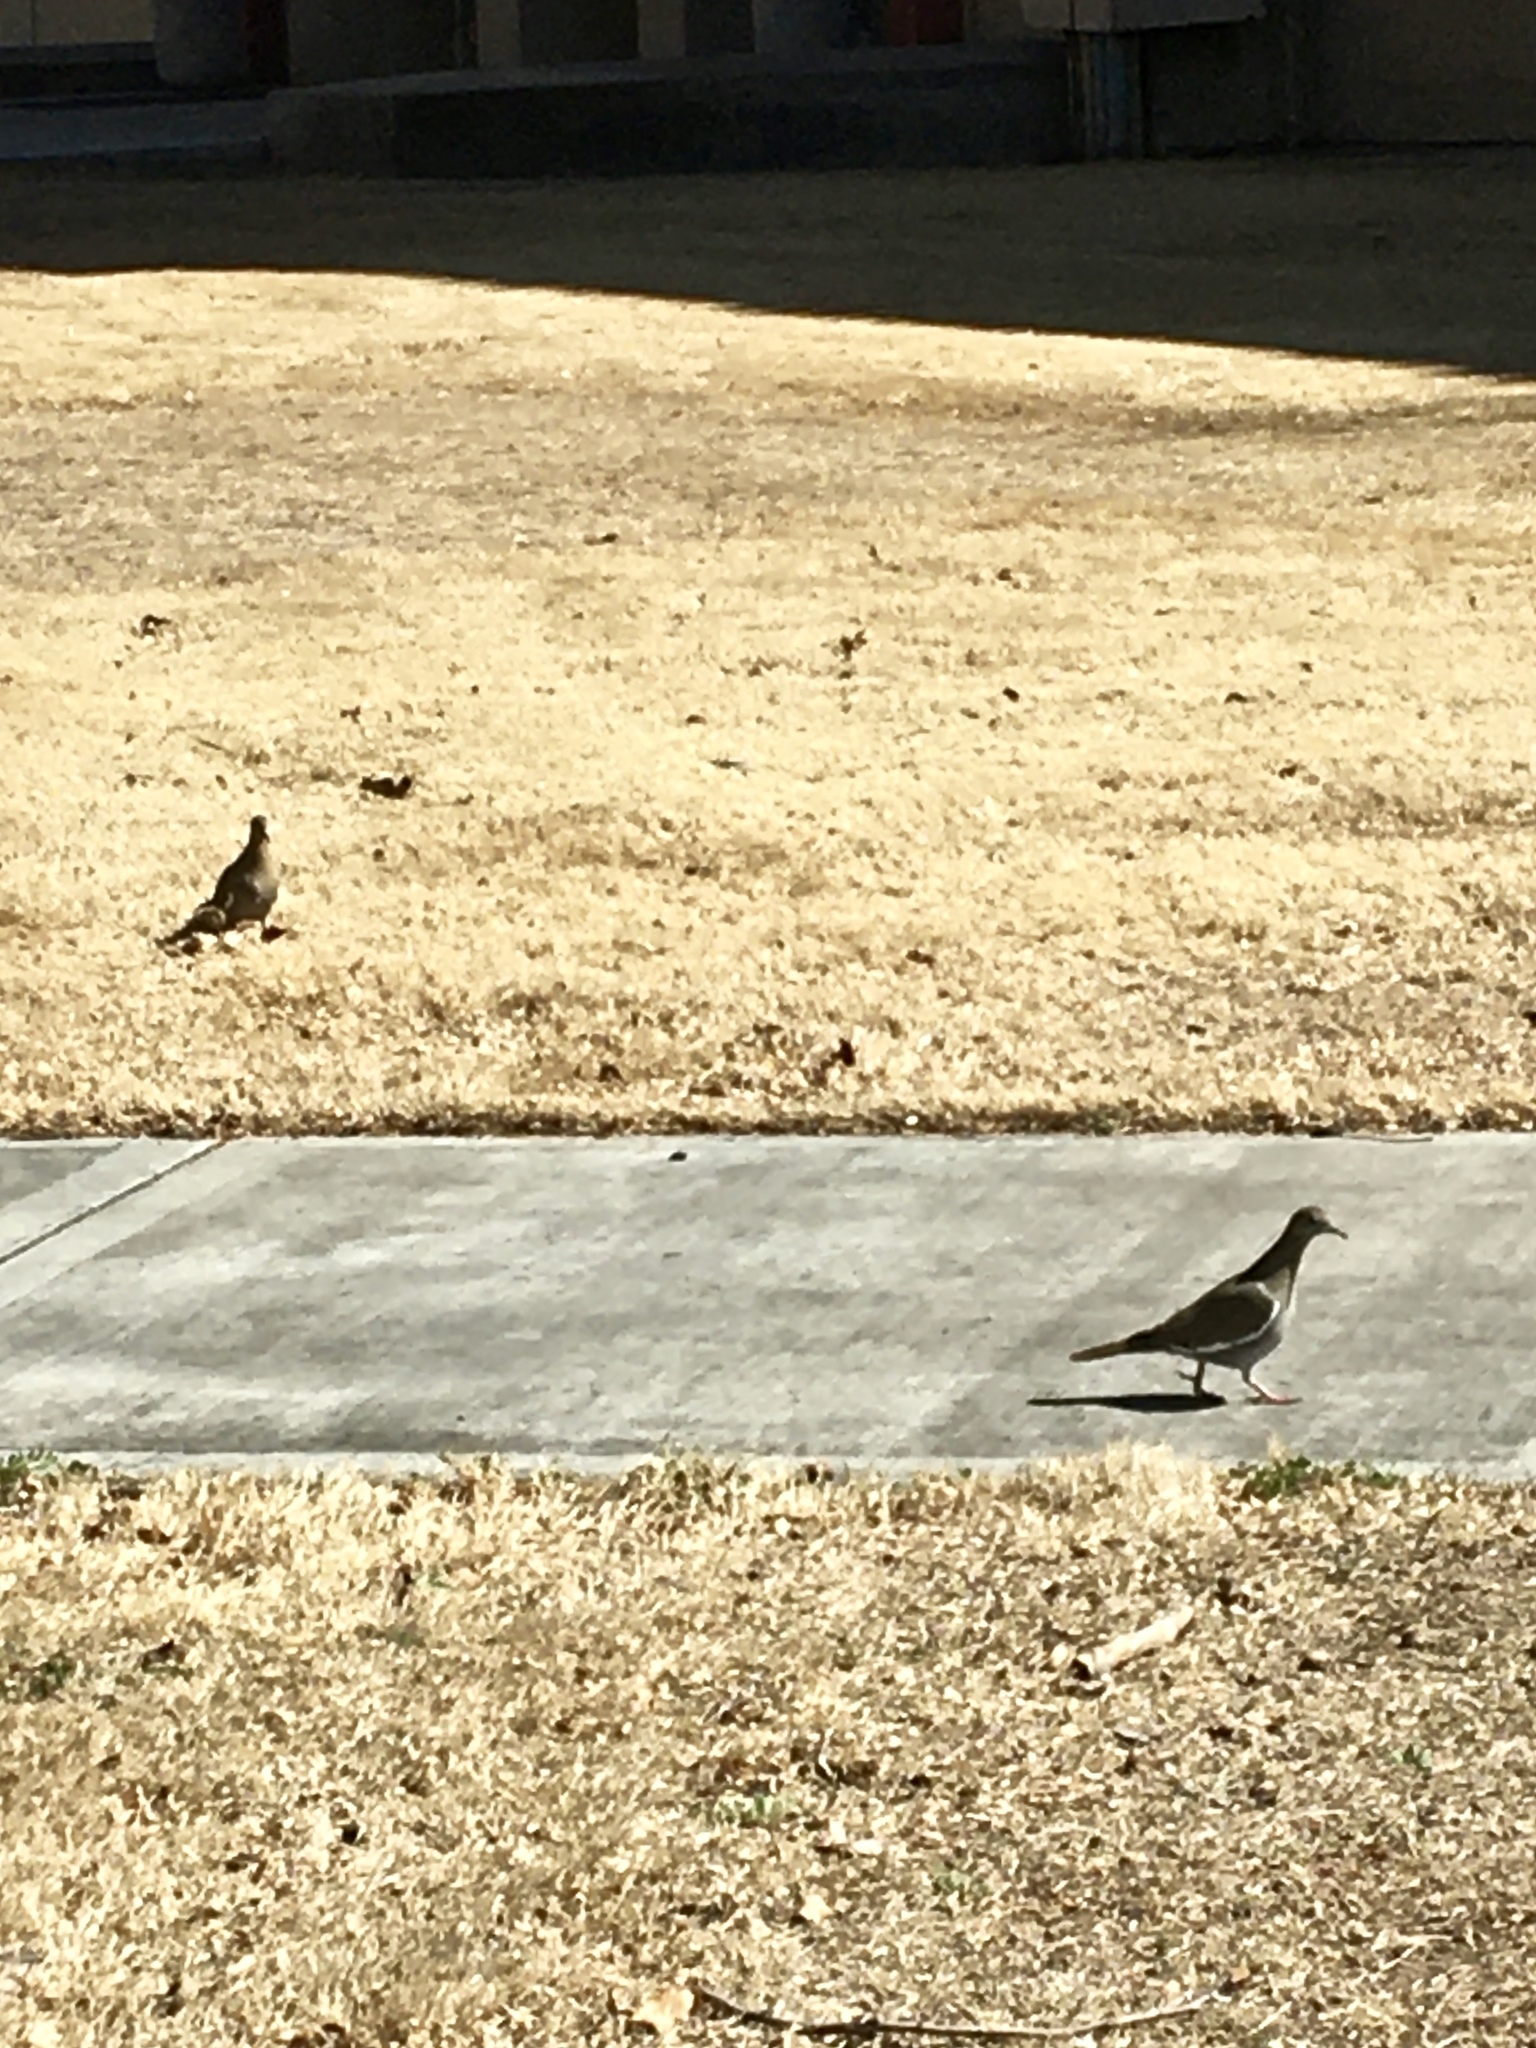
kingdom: Animalia
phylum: Chordata
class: Aves
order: Columbiformes
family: Columbidae
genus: Zenaida
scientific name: Zenaida asiatica
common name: White-winged dove
